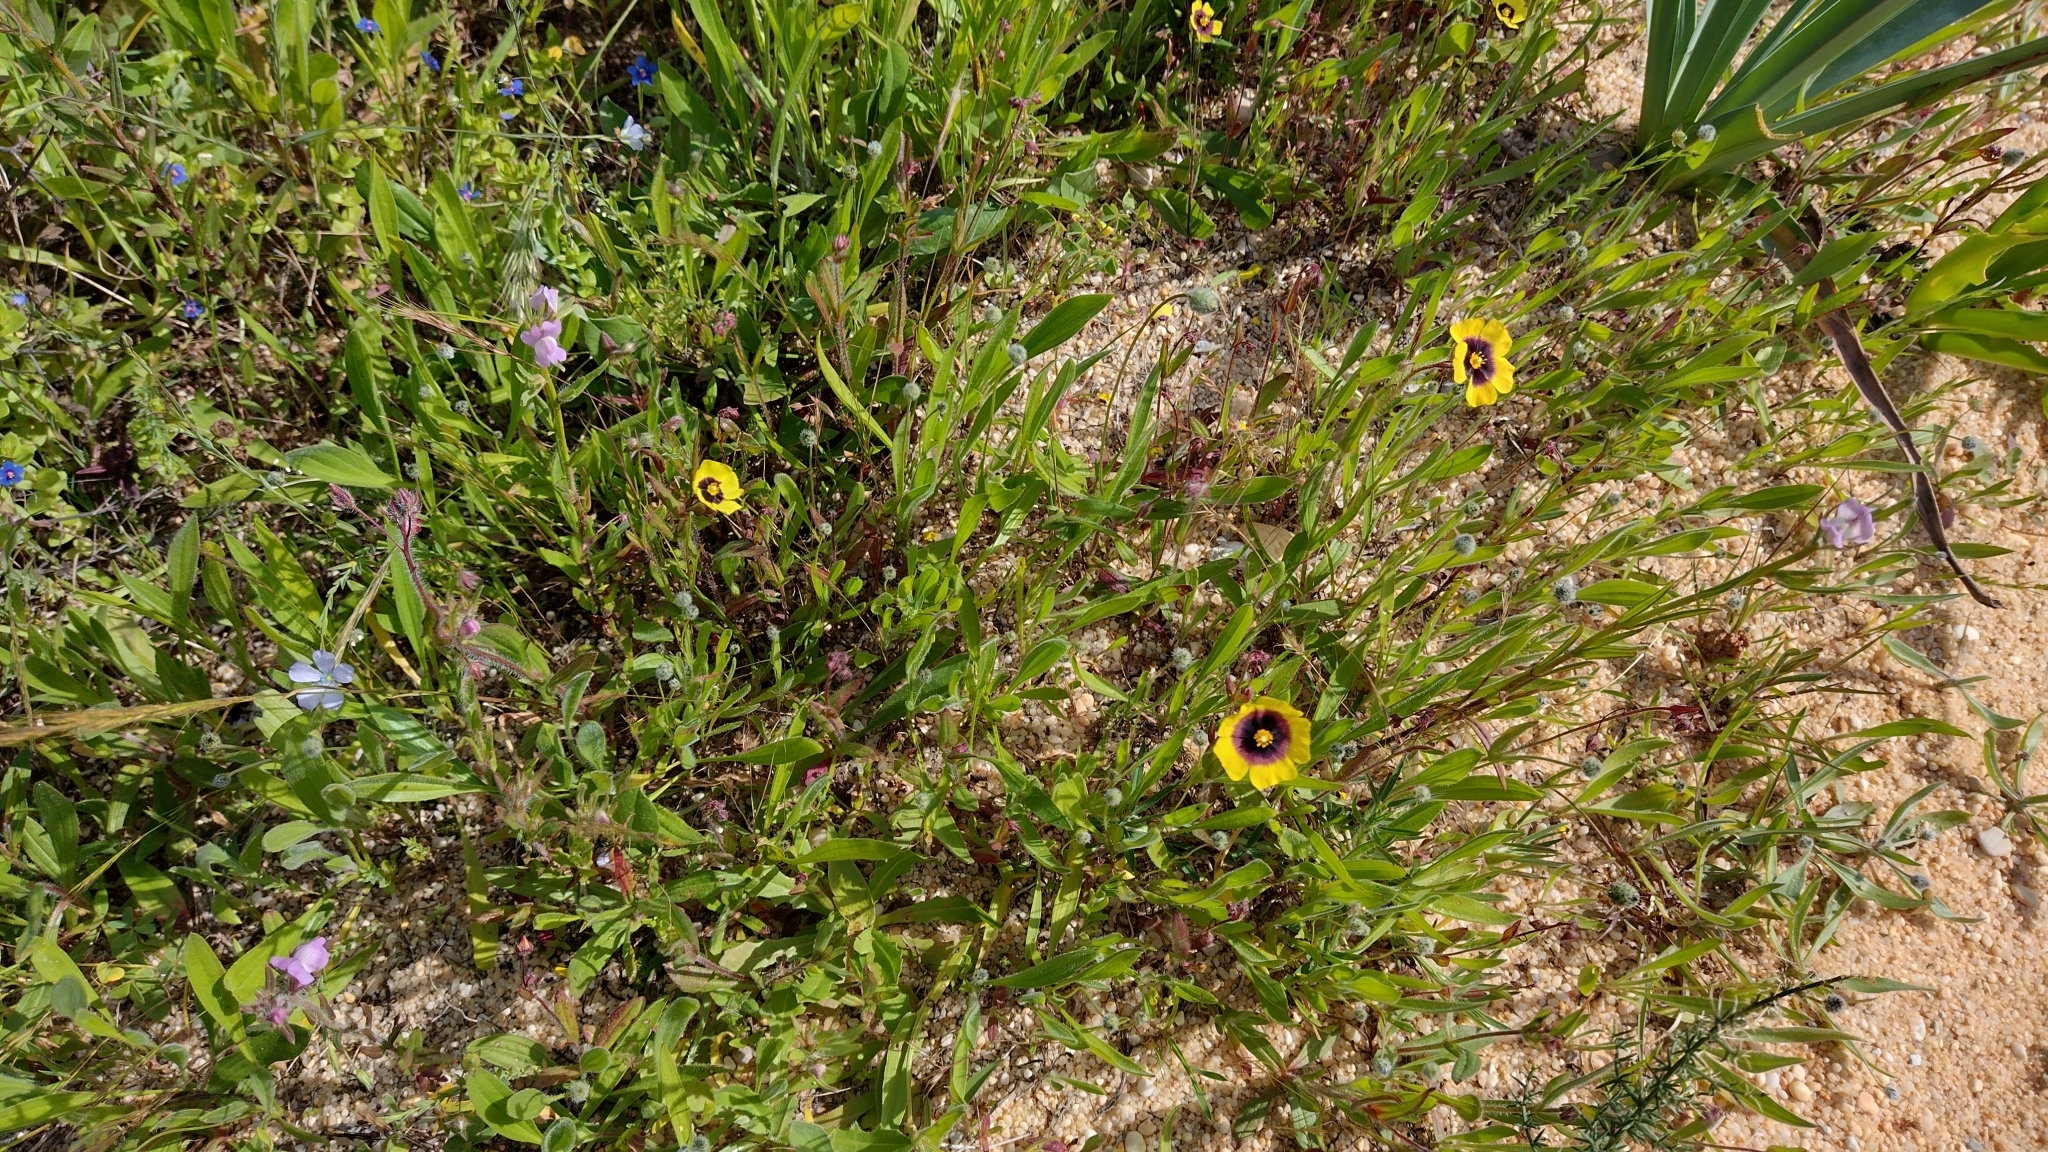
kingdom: Plantae
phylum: Tracheophyta
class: Magnoliopsida
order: Malvales
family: Cistaceae
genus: Tuberaria
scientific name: Tuberaria guttata
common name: Spotted rock-rose
